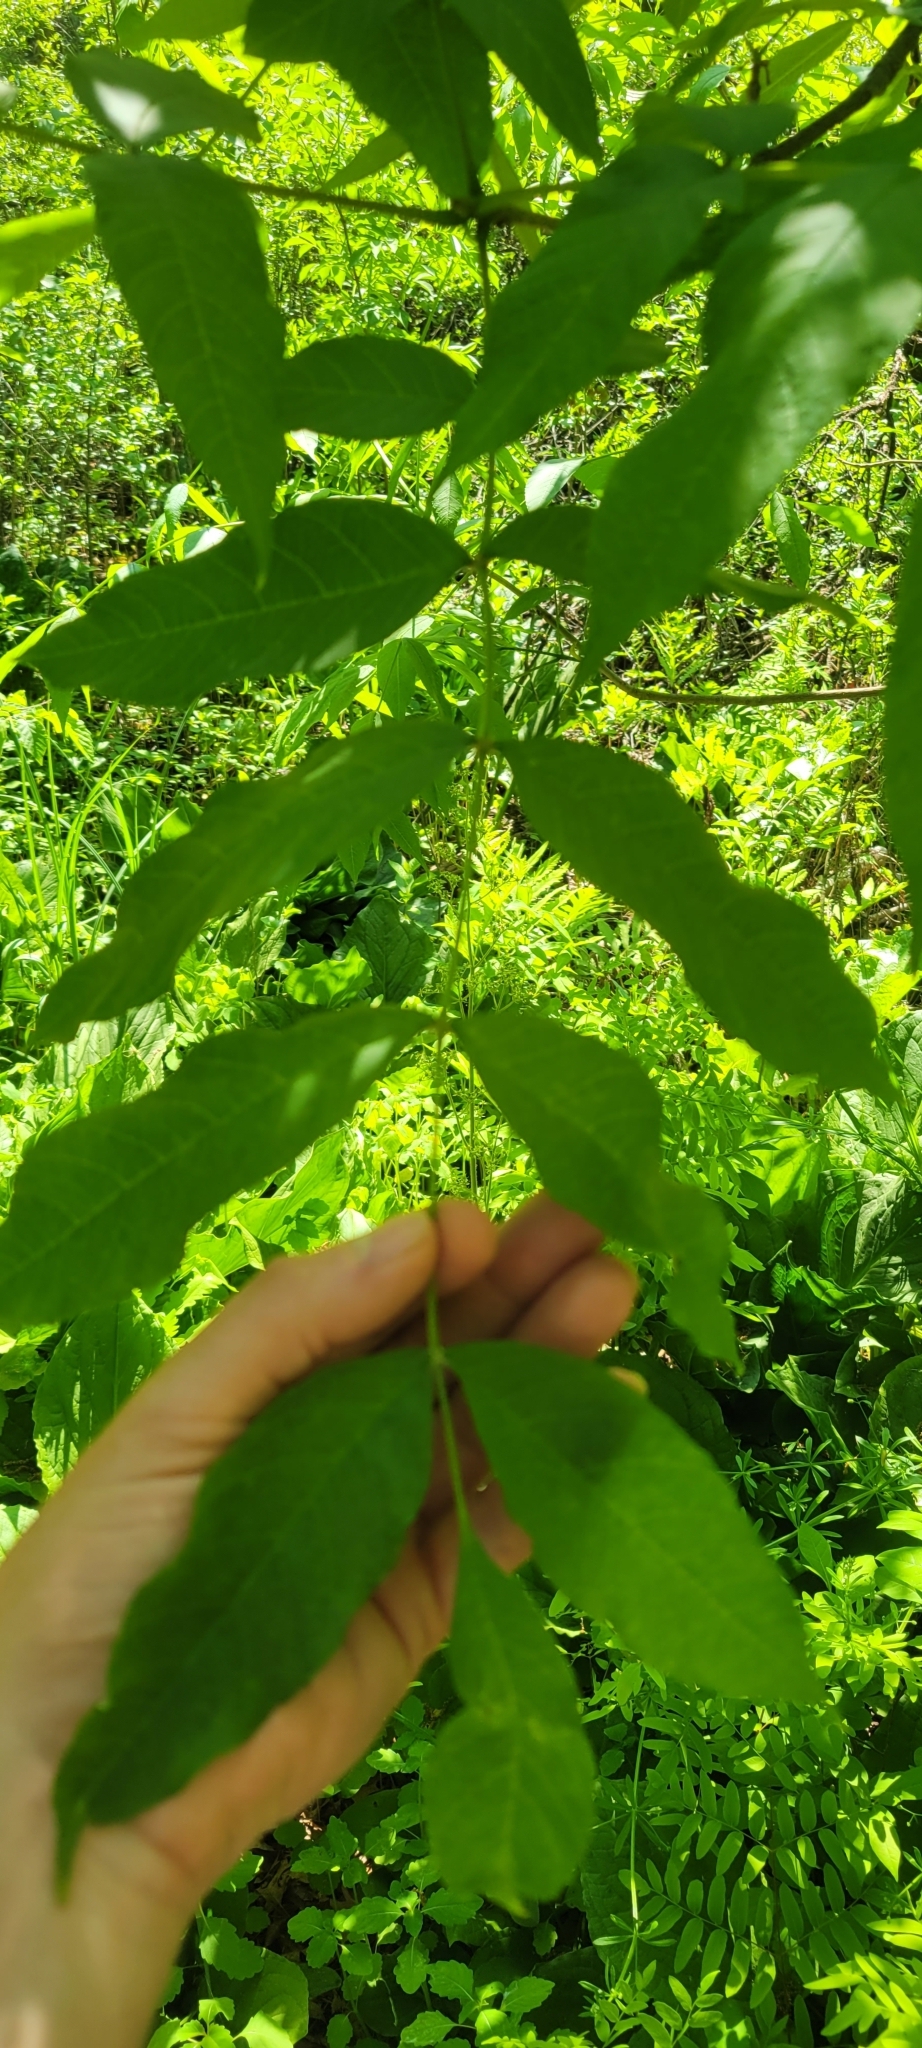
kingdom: Plantae
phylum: Tracheophyta
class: Magnoliopsida
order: Lamiales
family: Oleaceae
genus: Fraxinus
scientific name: Fraxinus nigra
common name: Black ash
